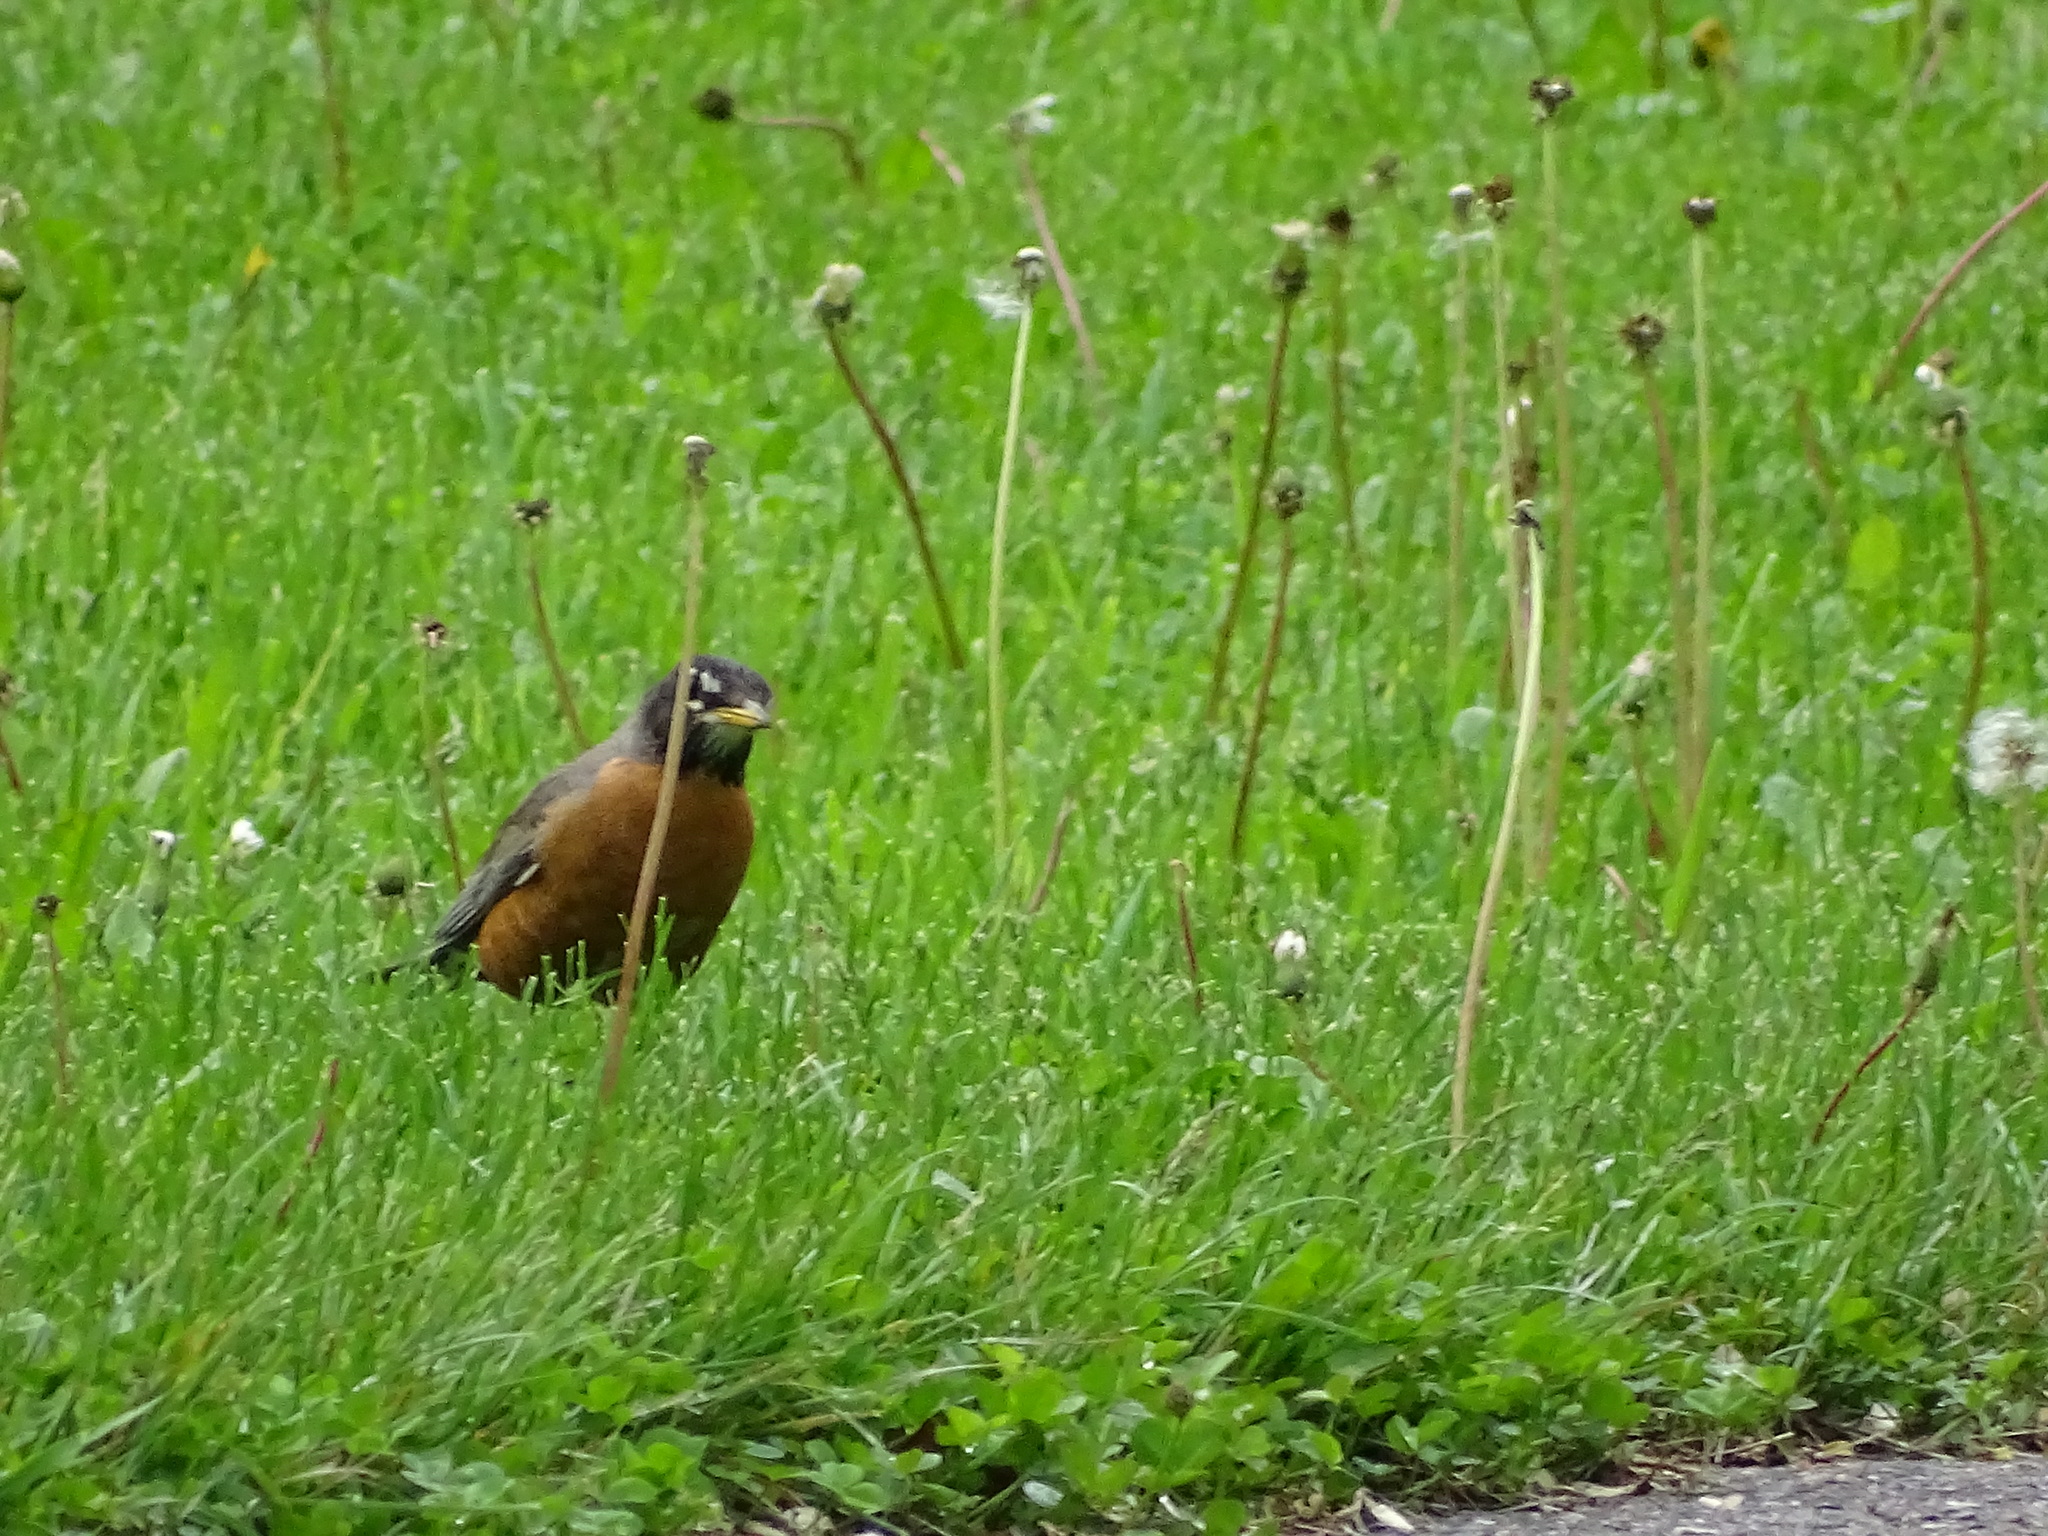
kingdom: Animalia
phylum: Chordata
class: Aves
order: Passeriformes
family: Turdidae
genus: Turdus
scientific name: Turdus migratorius
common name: American robin
